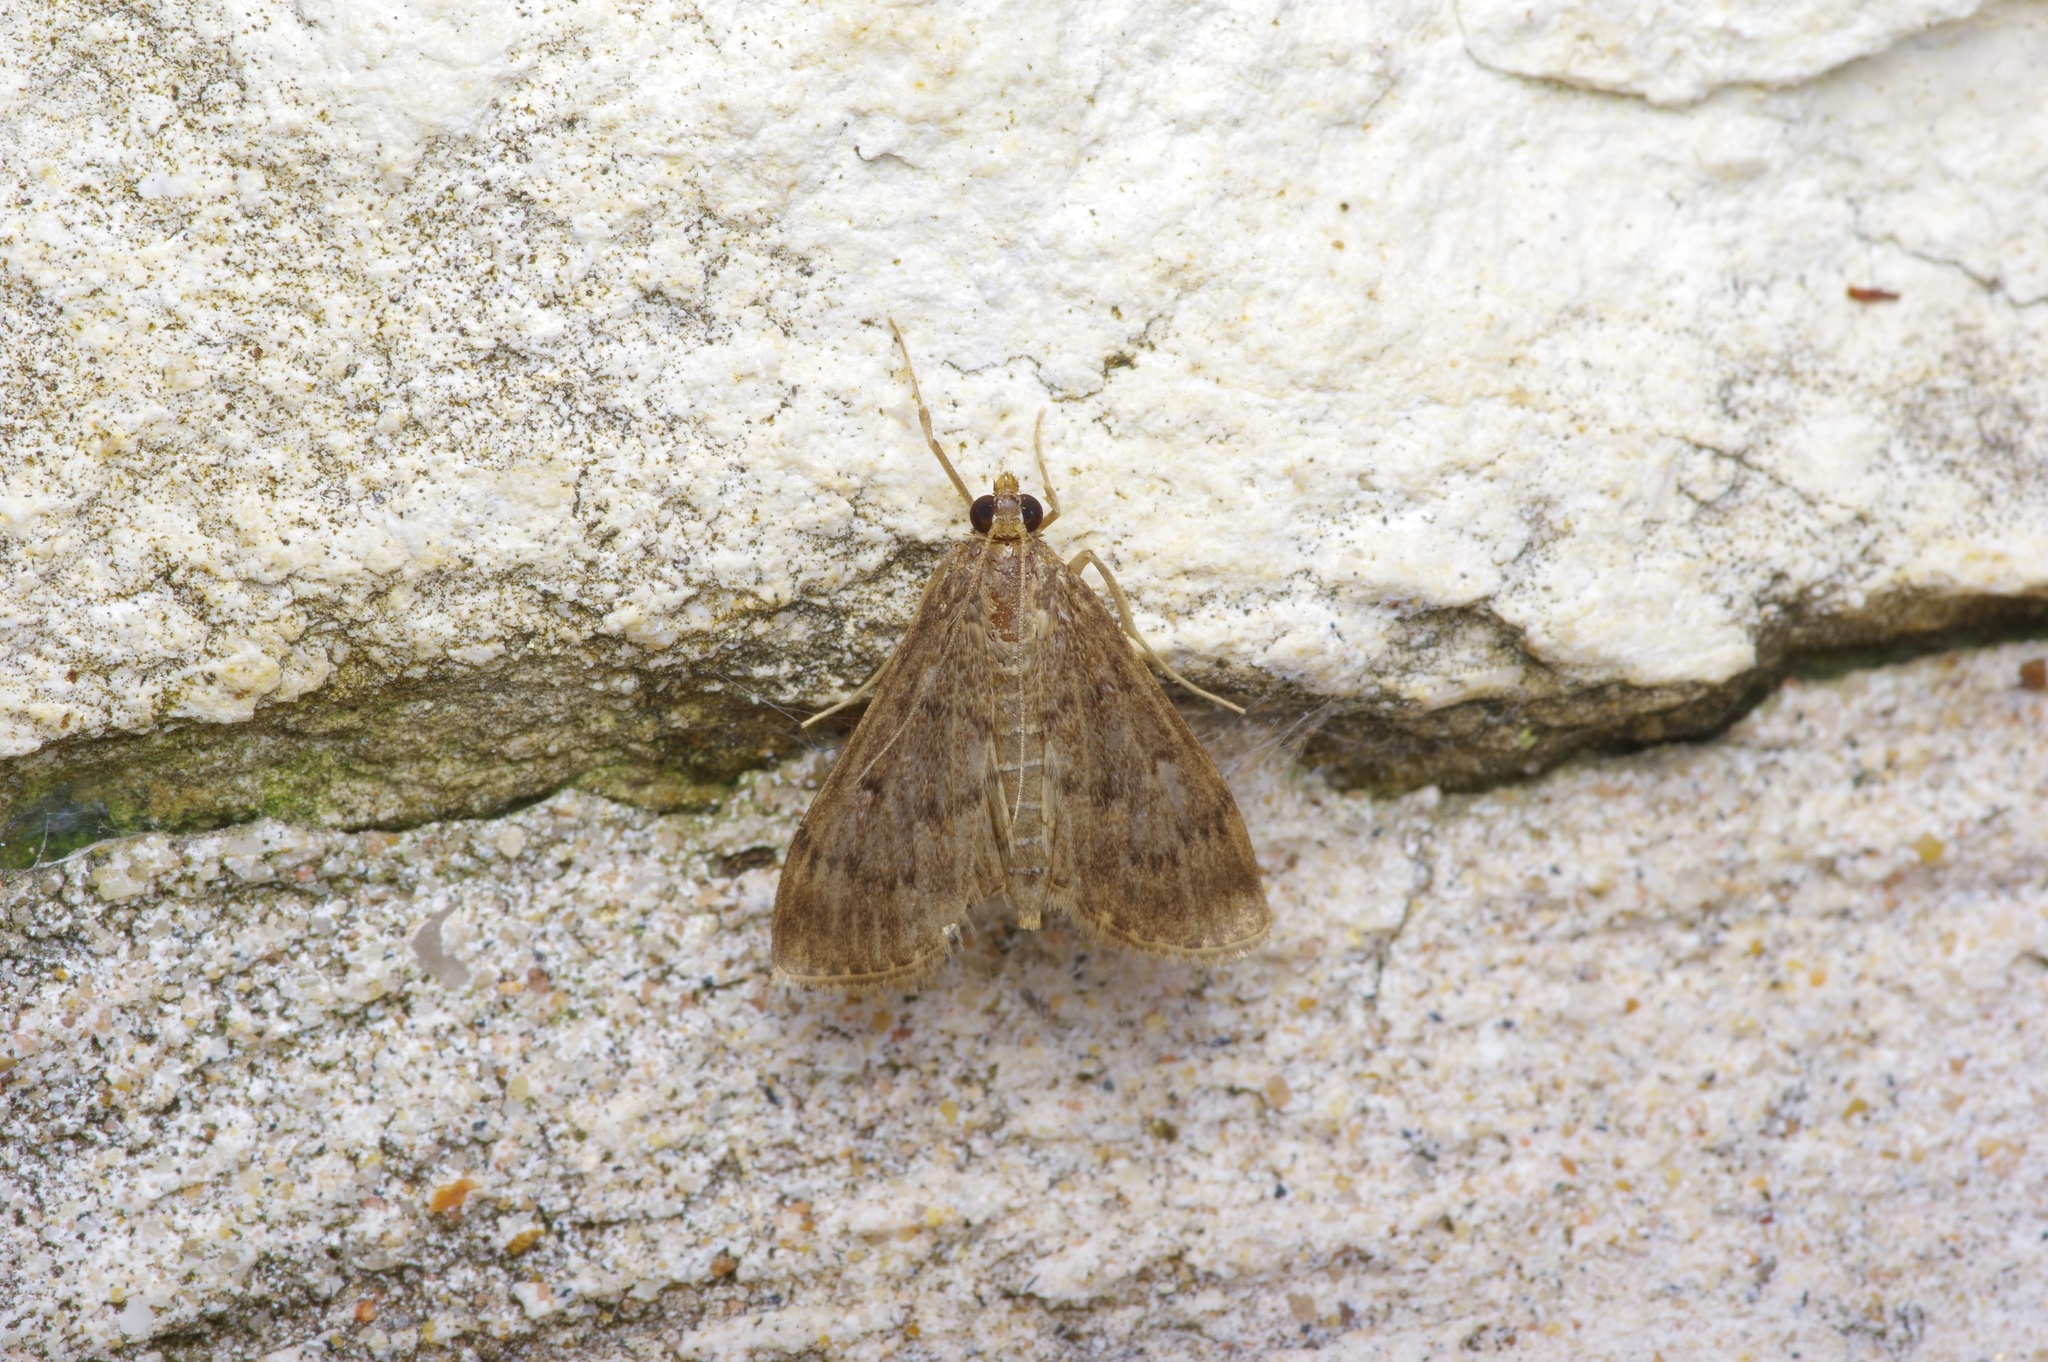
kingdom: Animalia
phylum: Arthropoda
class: Insecta
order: Lepidoptera
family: Crambidae
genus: Herpetogramma
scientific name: Herpetogramma phaeopteralis
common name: Dusky herpetogramma moth
